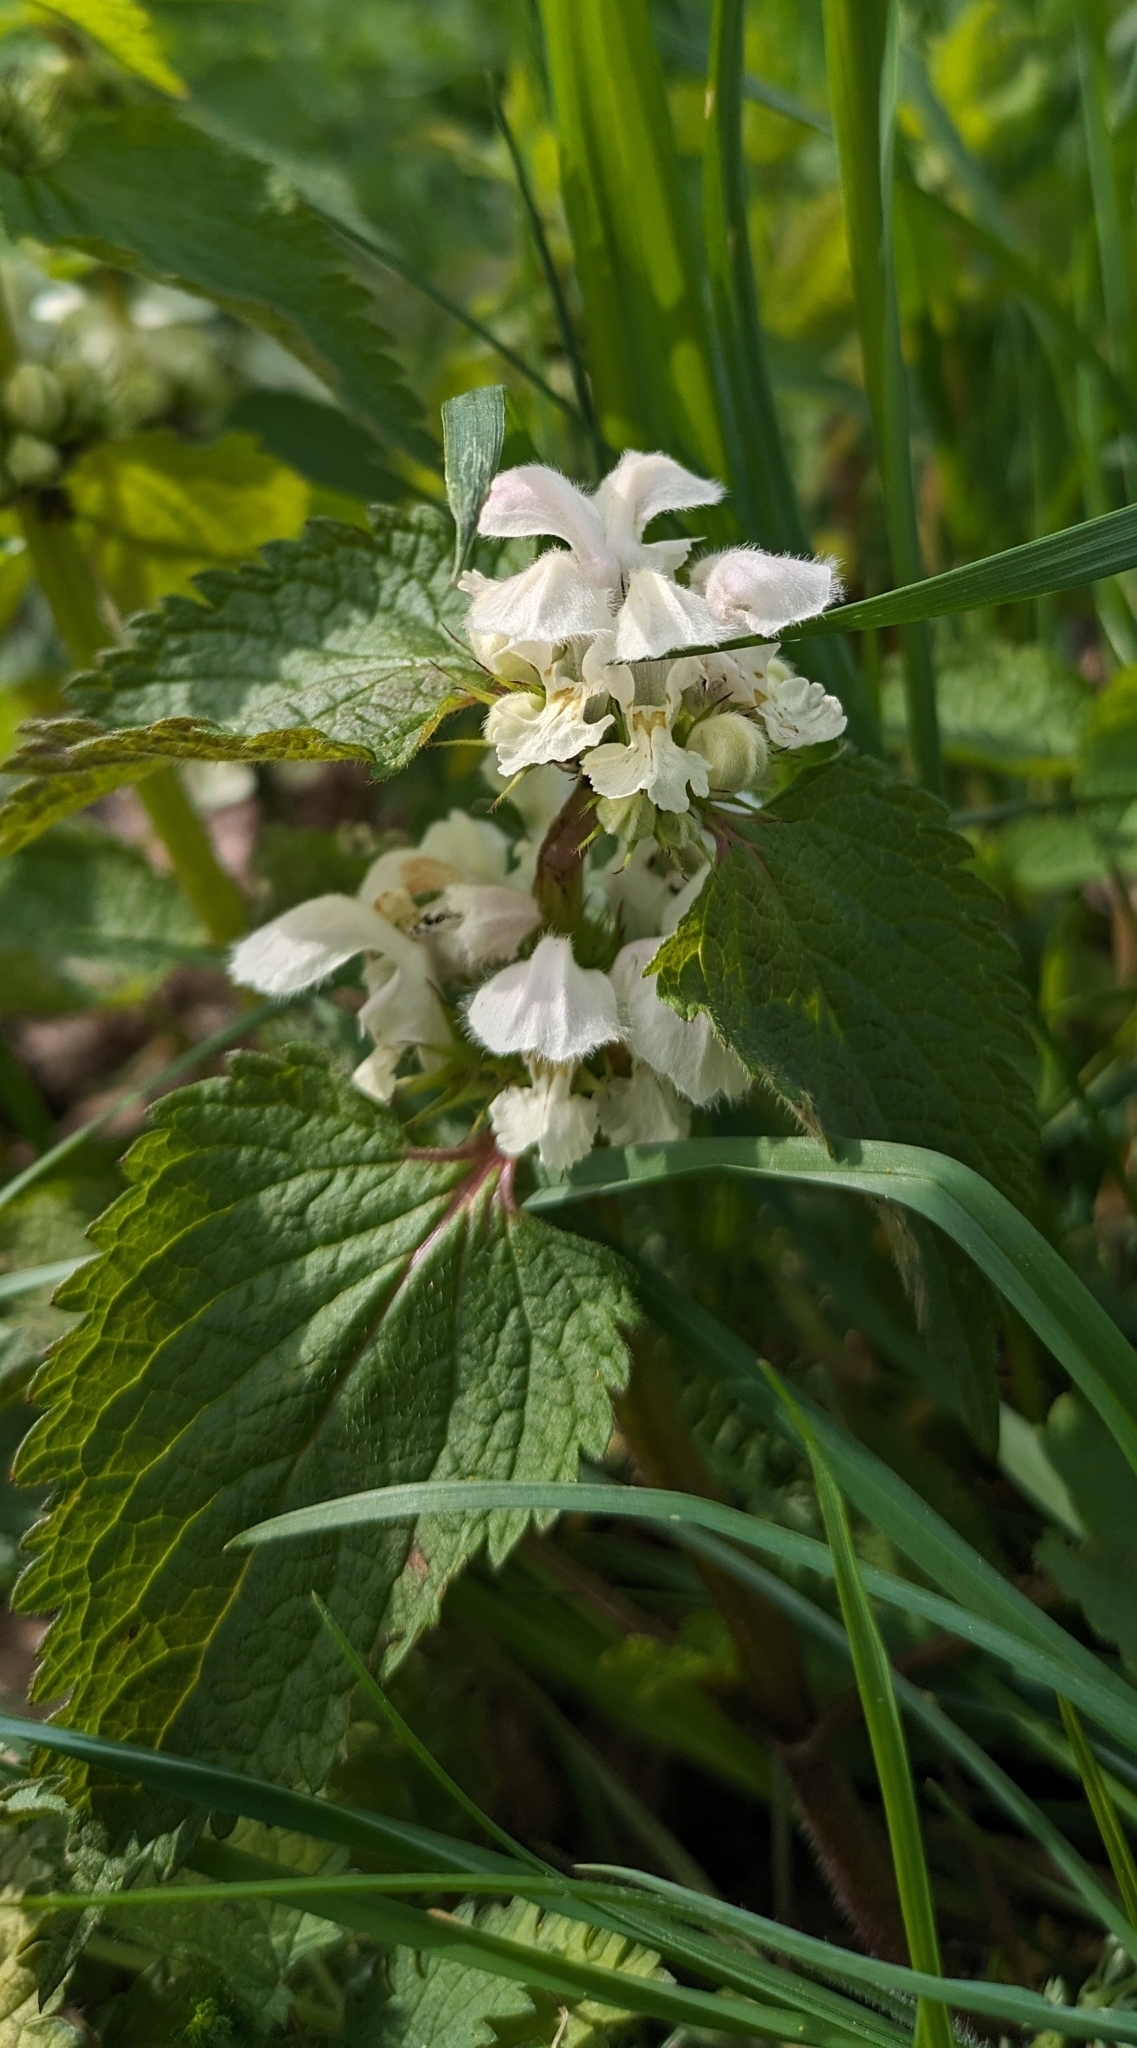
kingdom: Plantae
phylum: Tracheophyta
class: Magnoliopsida
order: Lamiales
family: Lamiaceae
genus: Lamium
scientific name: Lamium album
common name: White dead-nettle
